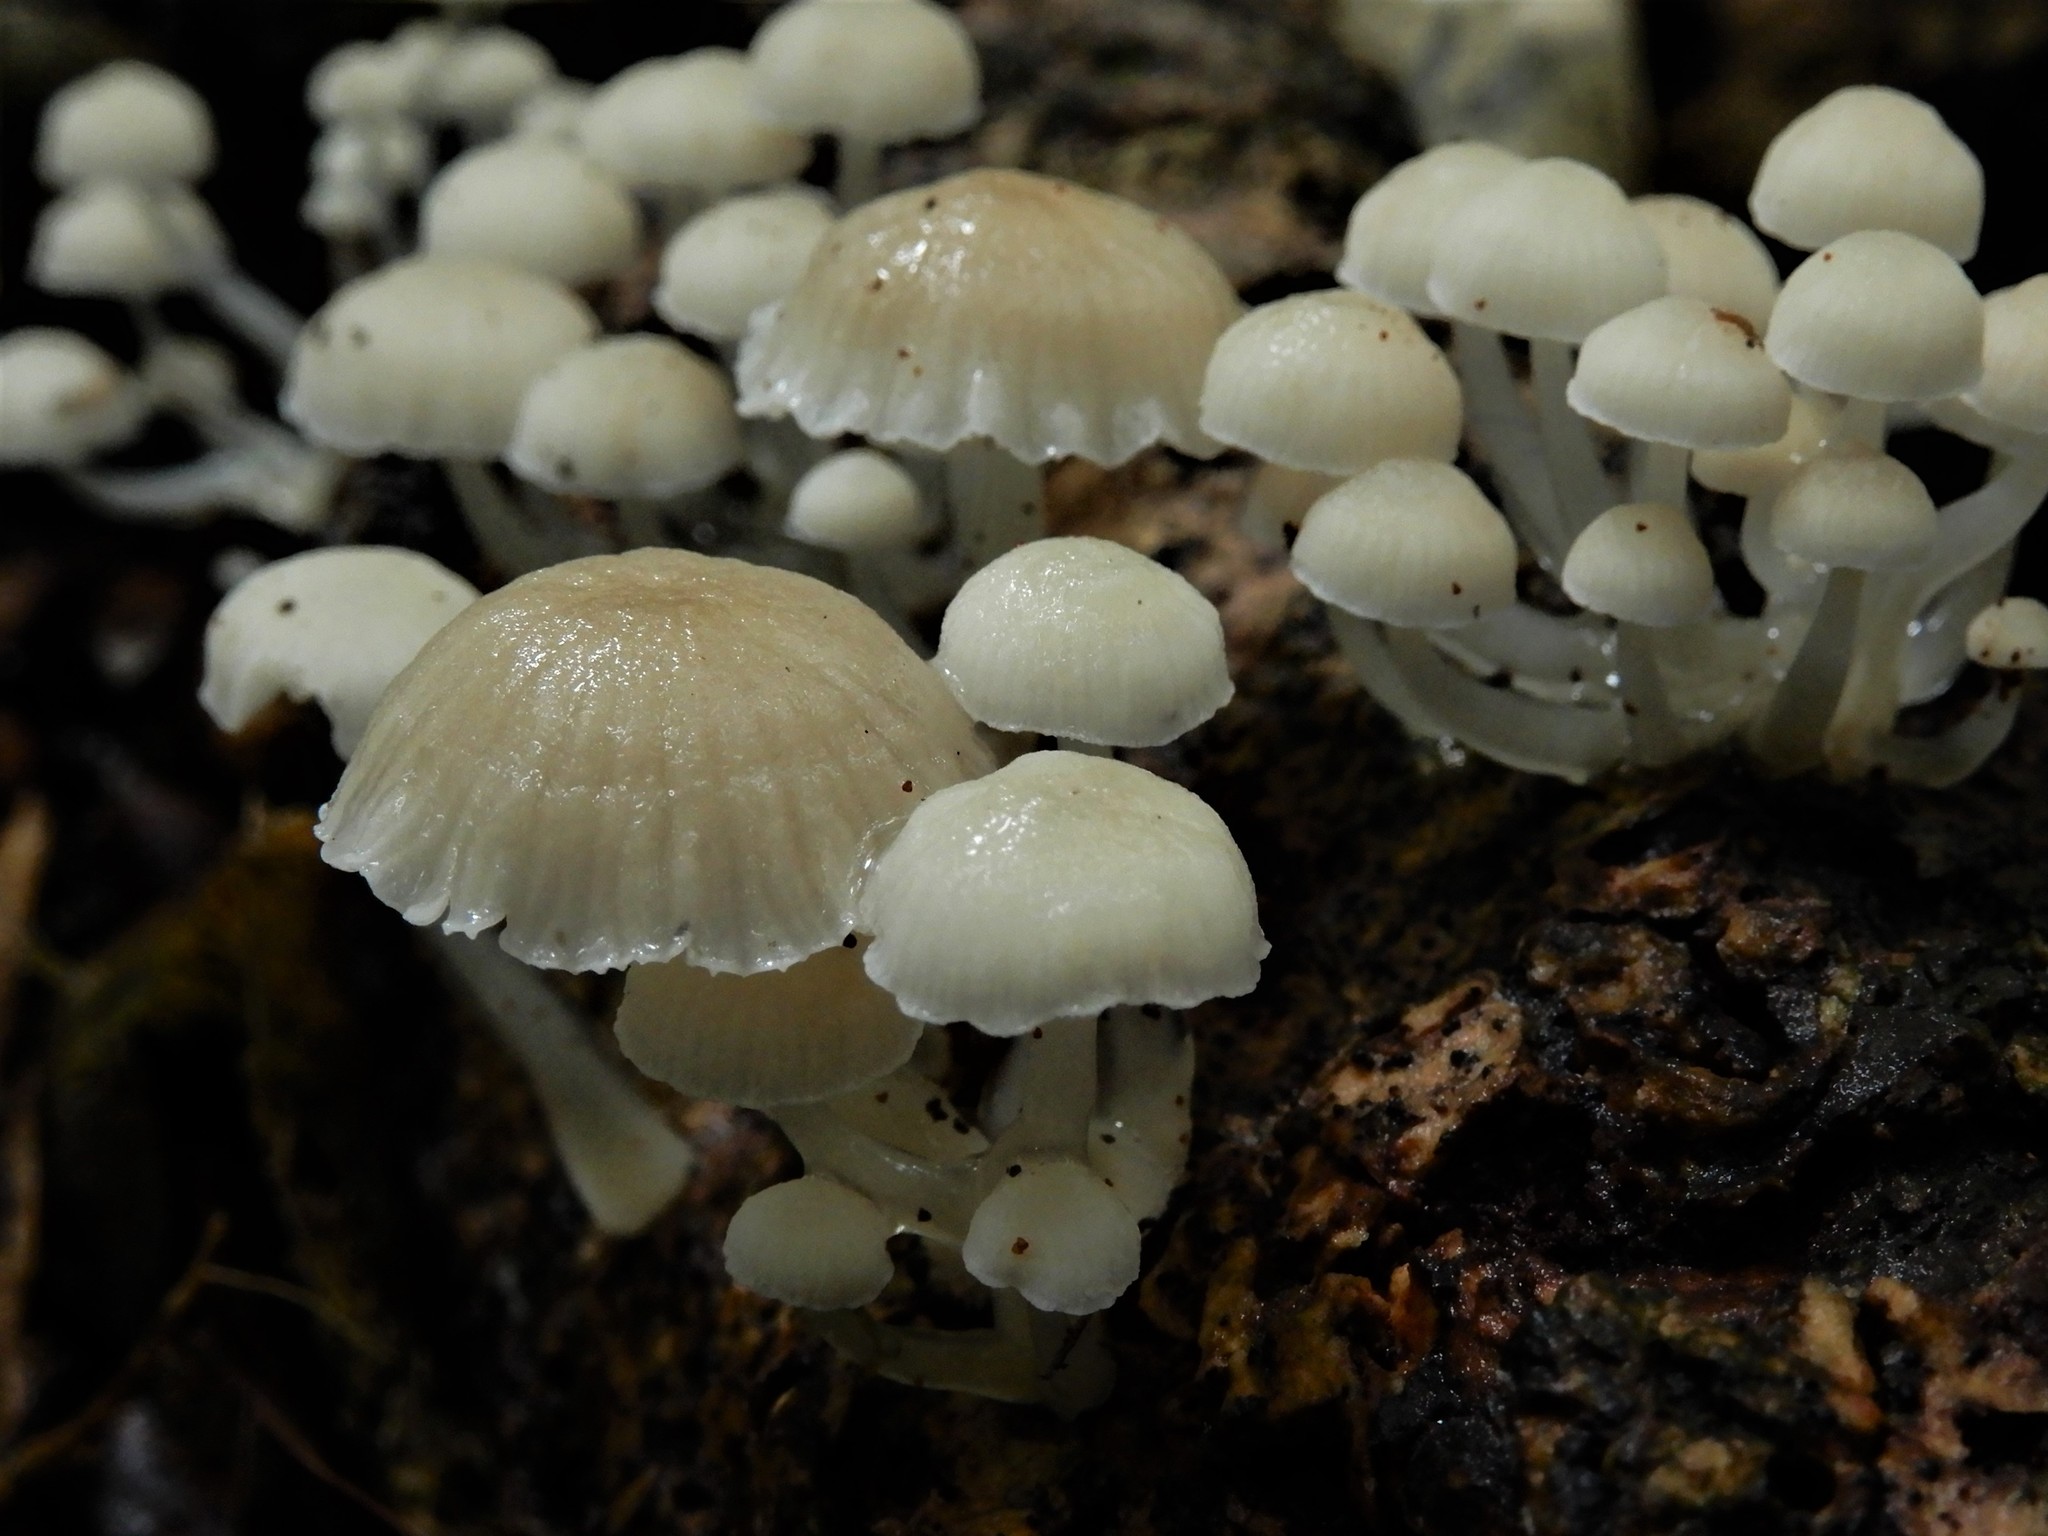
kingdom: Fungi
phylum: Basidiomycota
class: Agaricomycetes
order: Agaricales
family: Mycenaceae
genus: Roridomyces
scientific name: Roridomyces austrororidus
